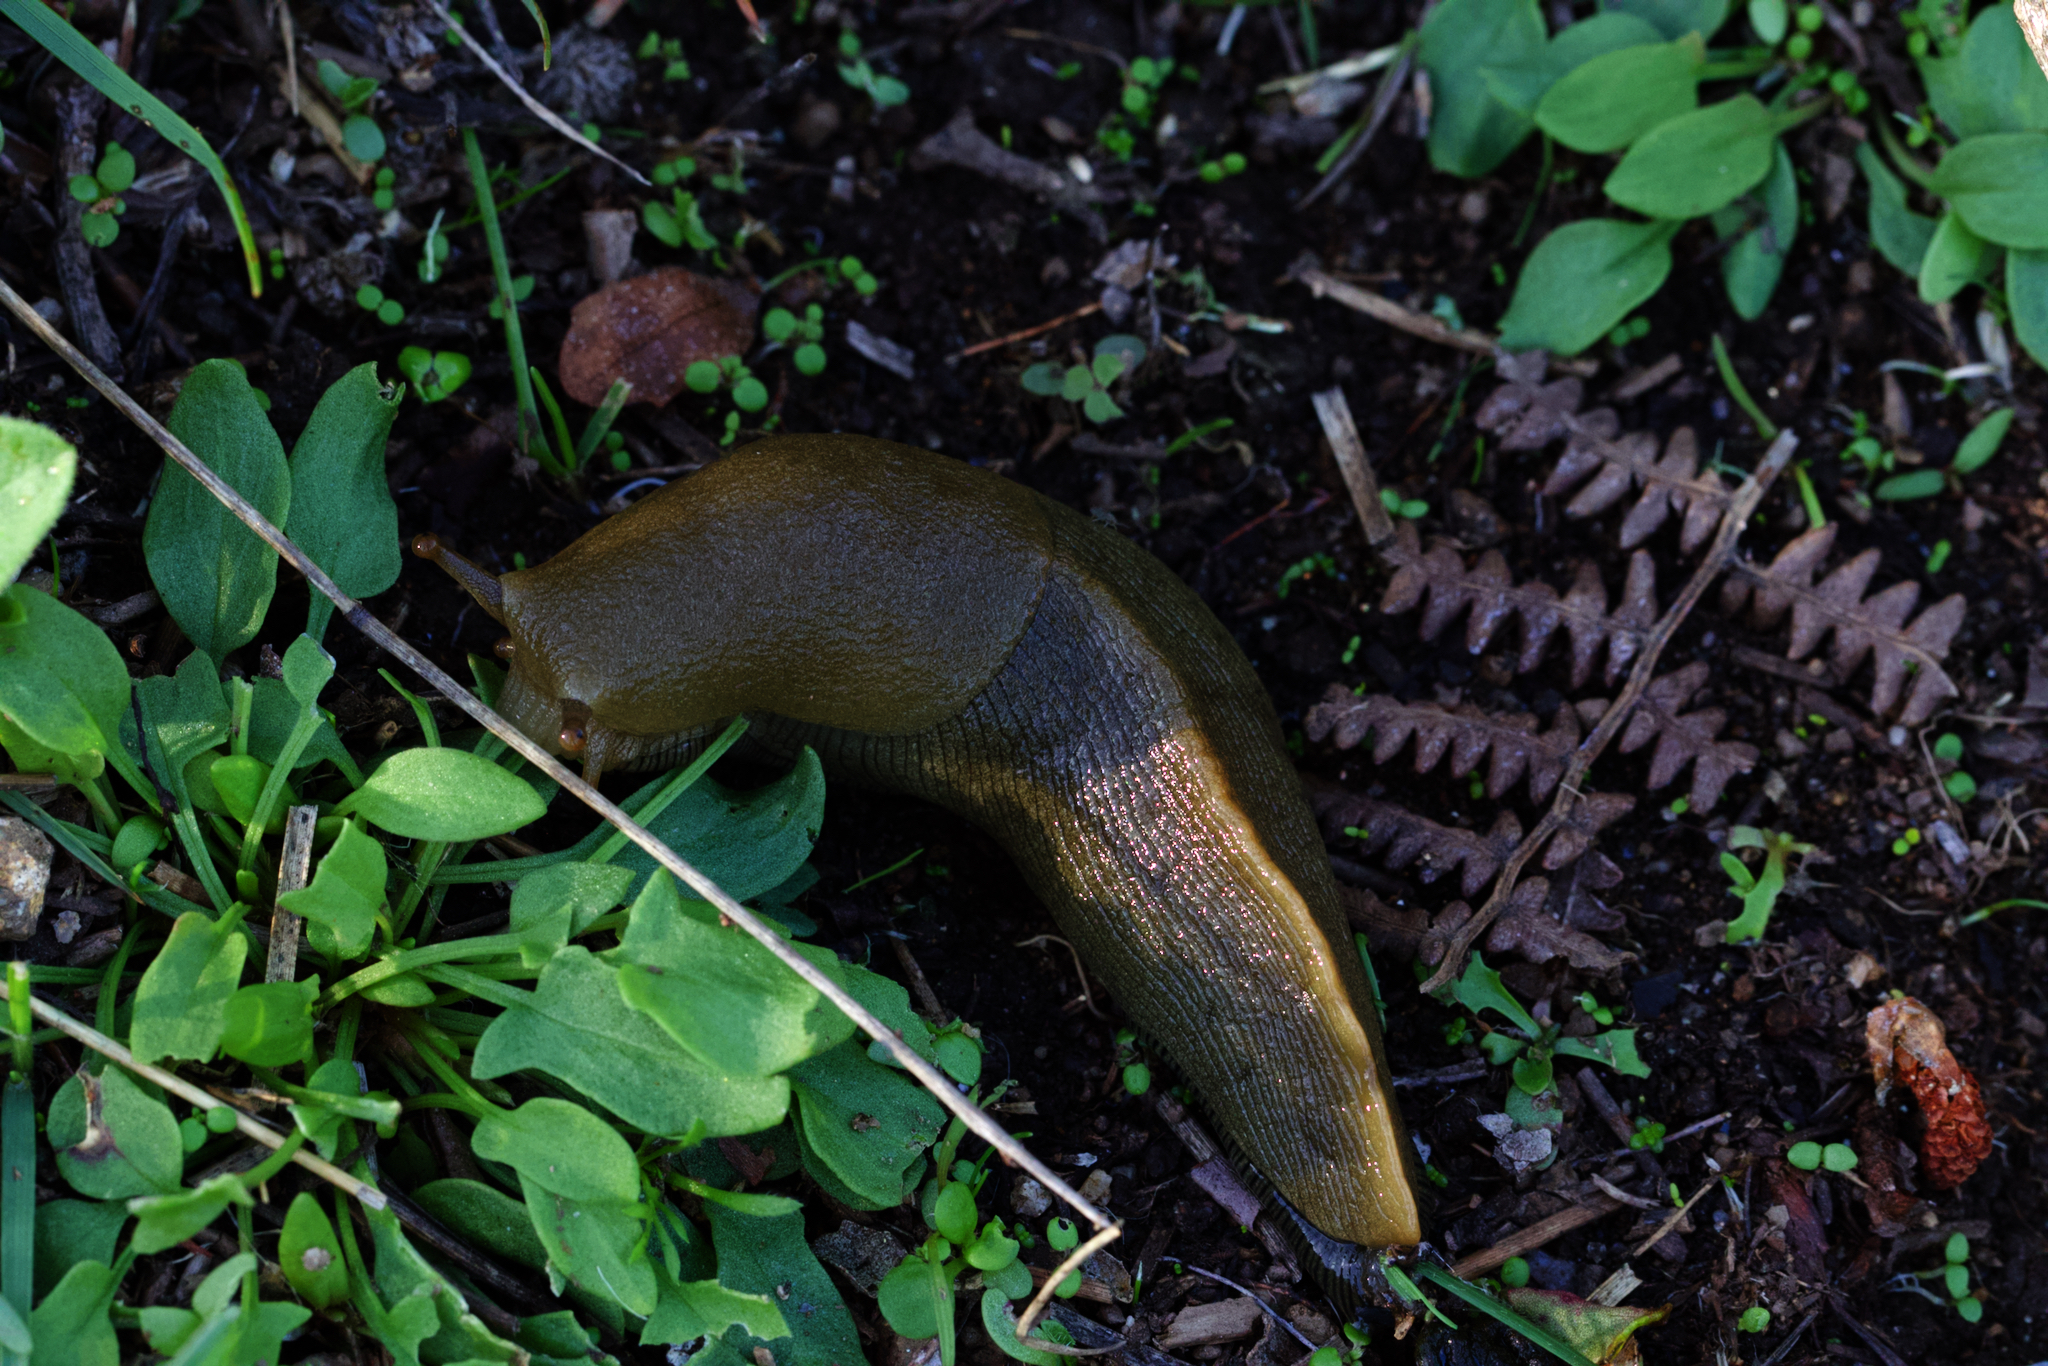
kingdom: Animalia
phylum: Mollusca
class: Gastropoda
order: Stylommatophora
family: Ariolimacidae
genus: Ariolimax
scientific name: Ariolimax buttoni
